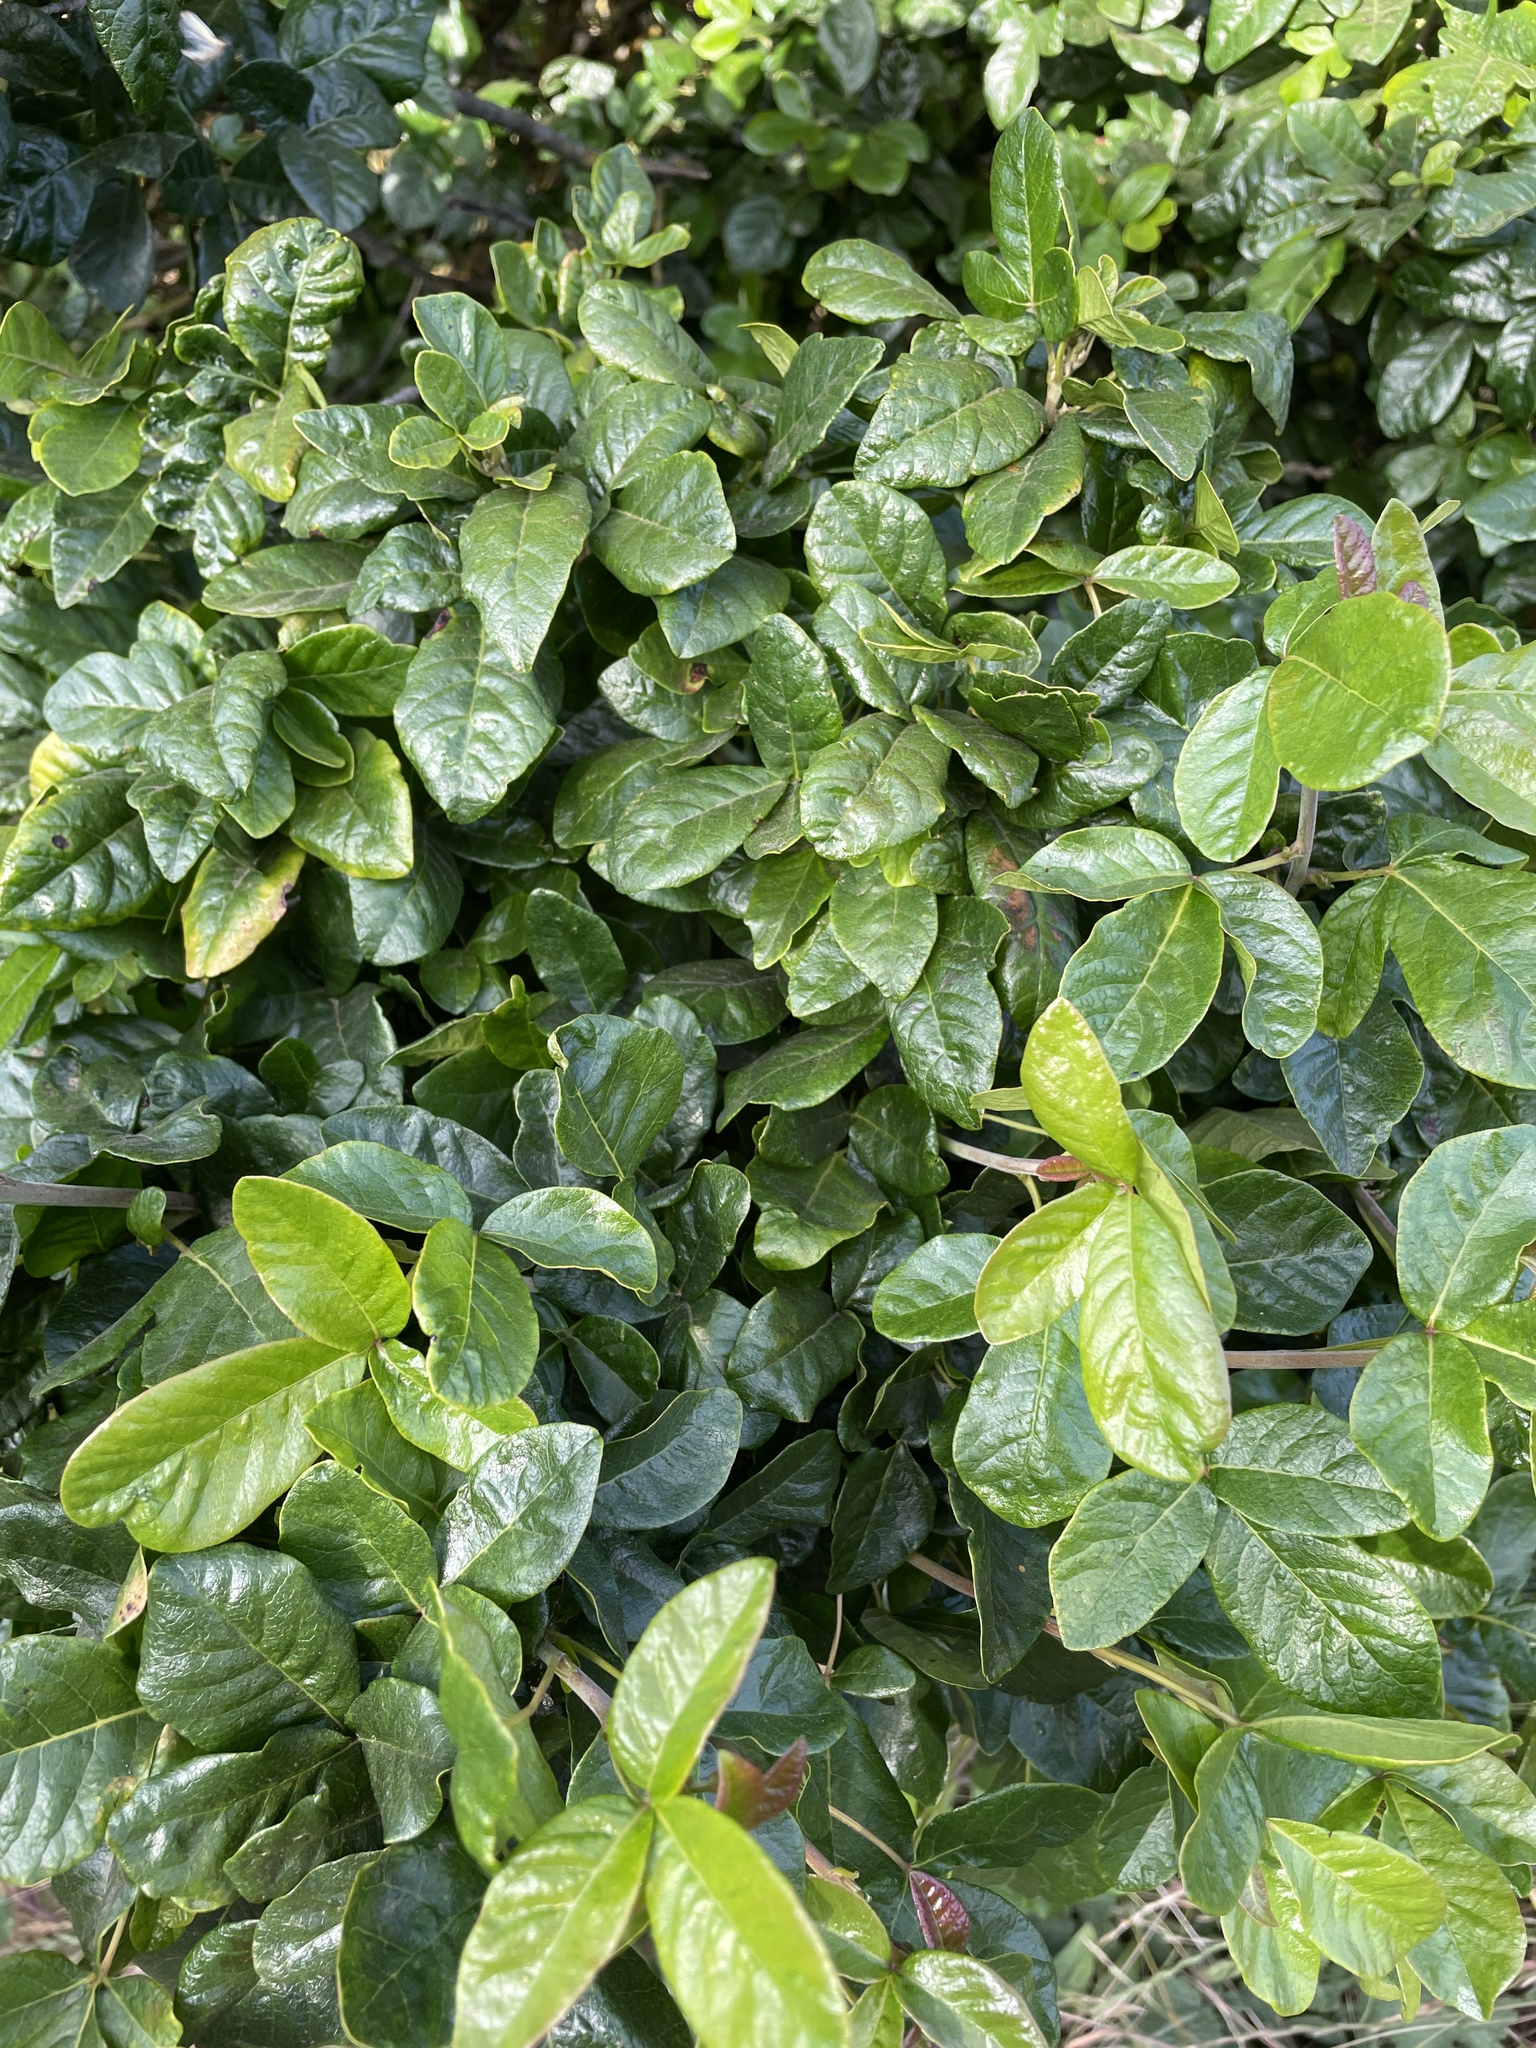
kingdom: Plantae
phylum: Tracheophyta
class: Magnoliopsida
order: Sapindales
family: Anacardiaceae
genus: Toxicodendron
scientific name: Toxicodendron diversilobum
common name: Pacific poison-oak
